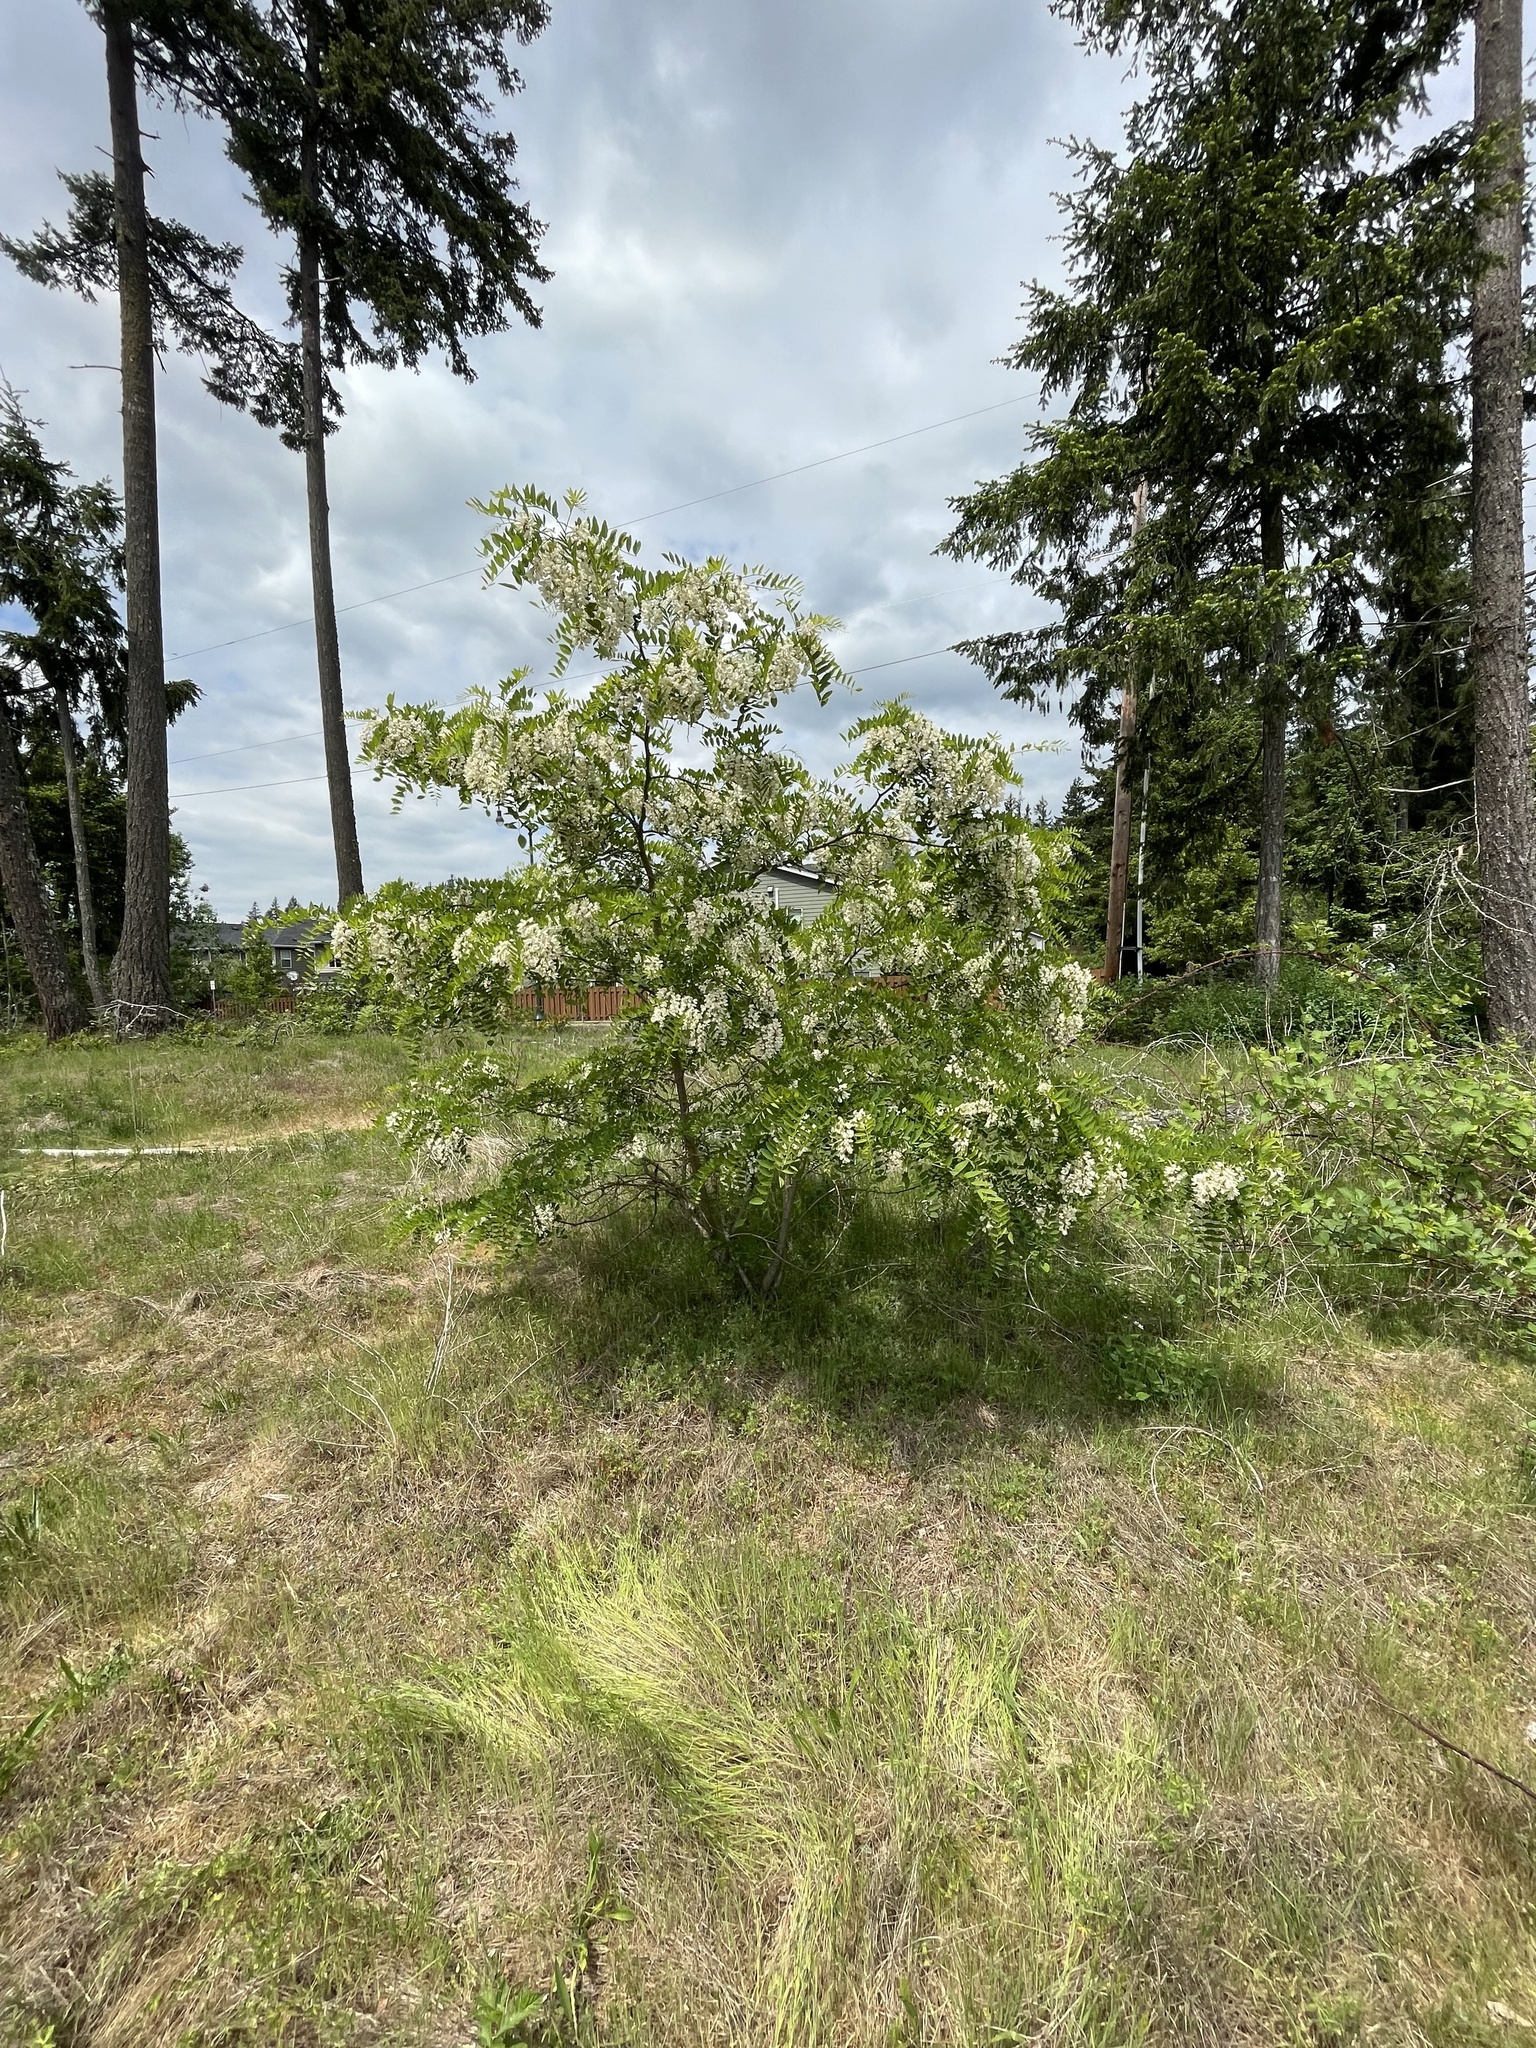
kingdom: Plantae
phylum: Tracheophyta
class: Magnoliopsida
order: Fabales
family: Fabaceae
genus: Robinia
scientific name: Robinia pseudoacacia
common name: Black locust
